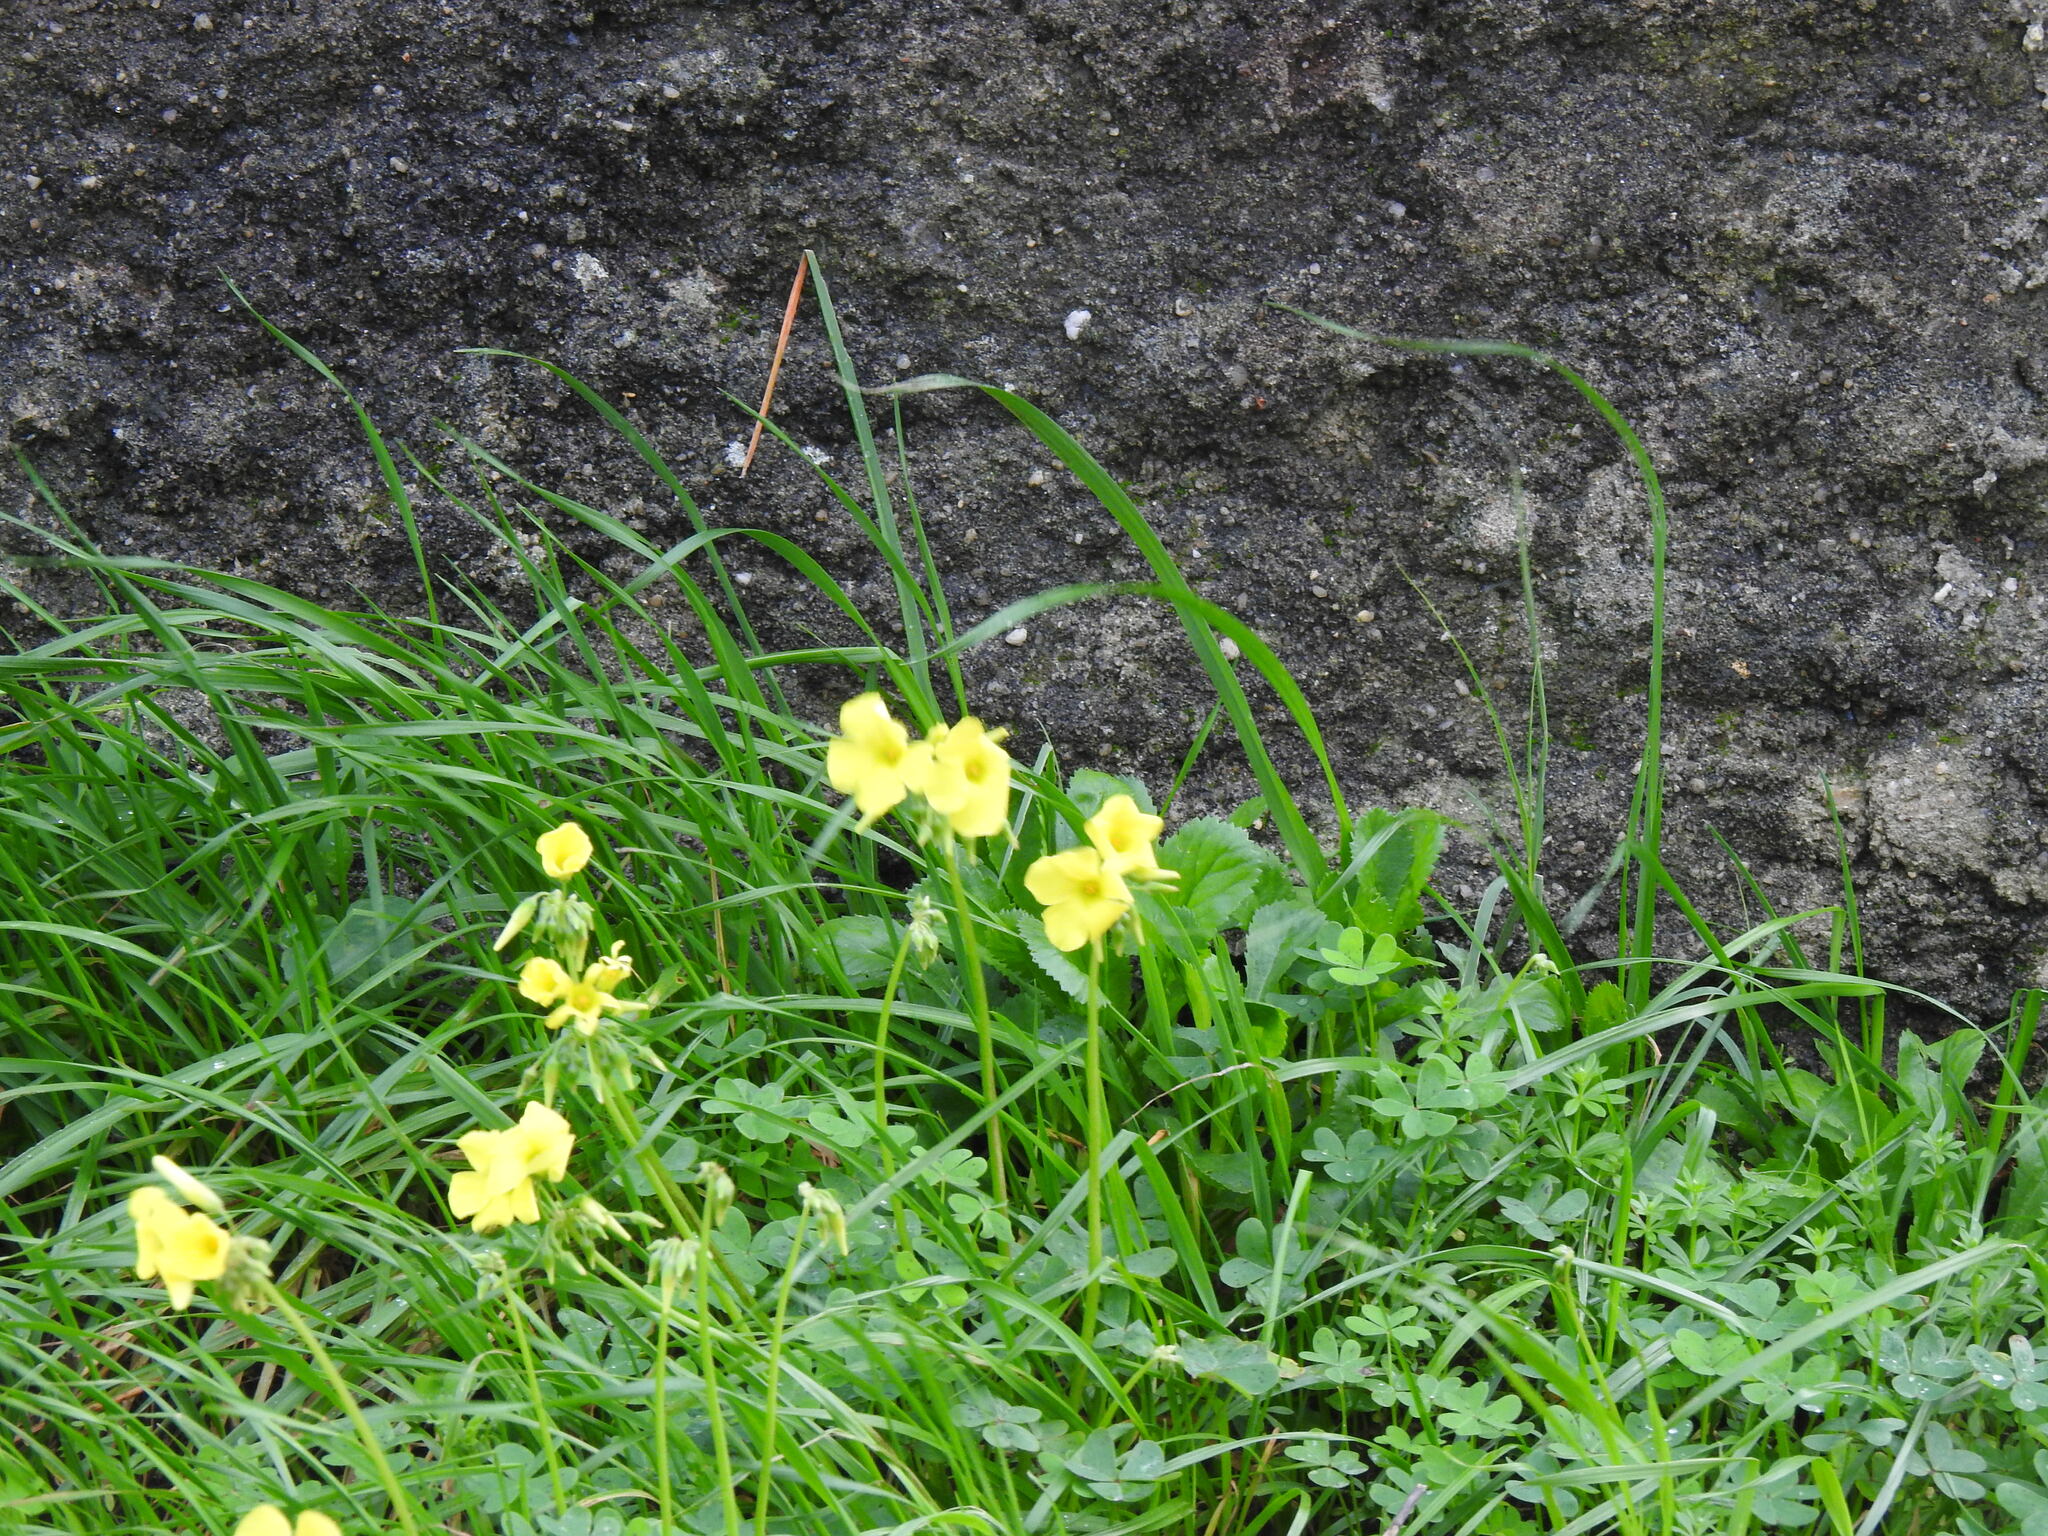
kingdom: Plantae
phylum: Tracheophyta
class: Magnoliopsida
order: Oxalidales
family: Oxalidaceae
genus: Oxalis
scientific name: Oxalis pes-caprae
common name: Bermuda-buttercup
